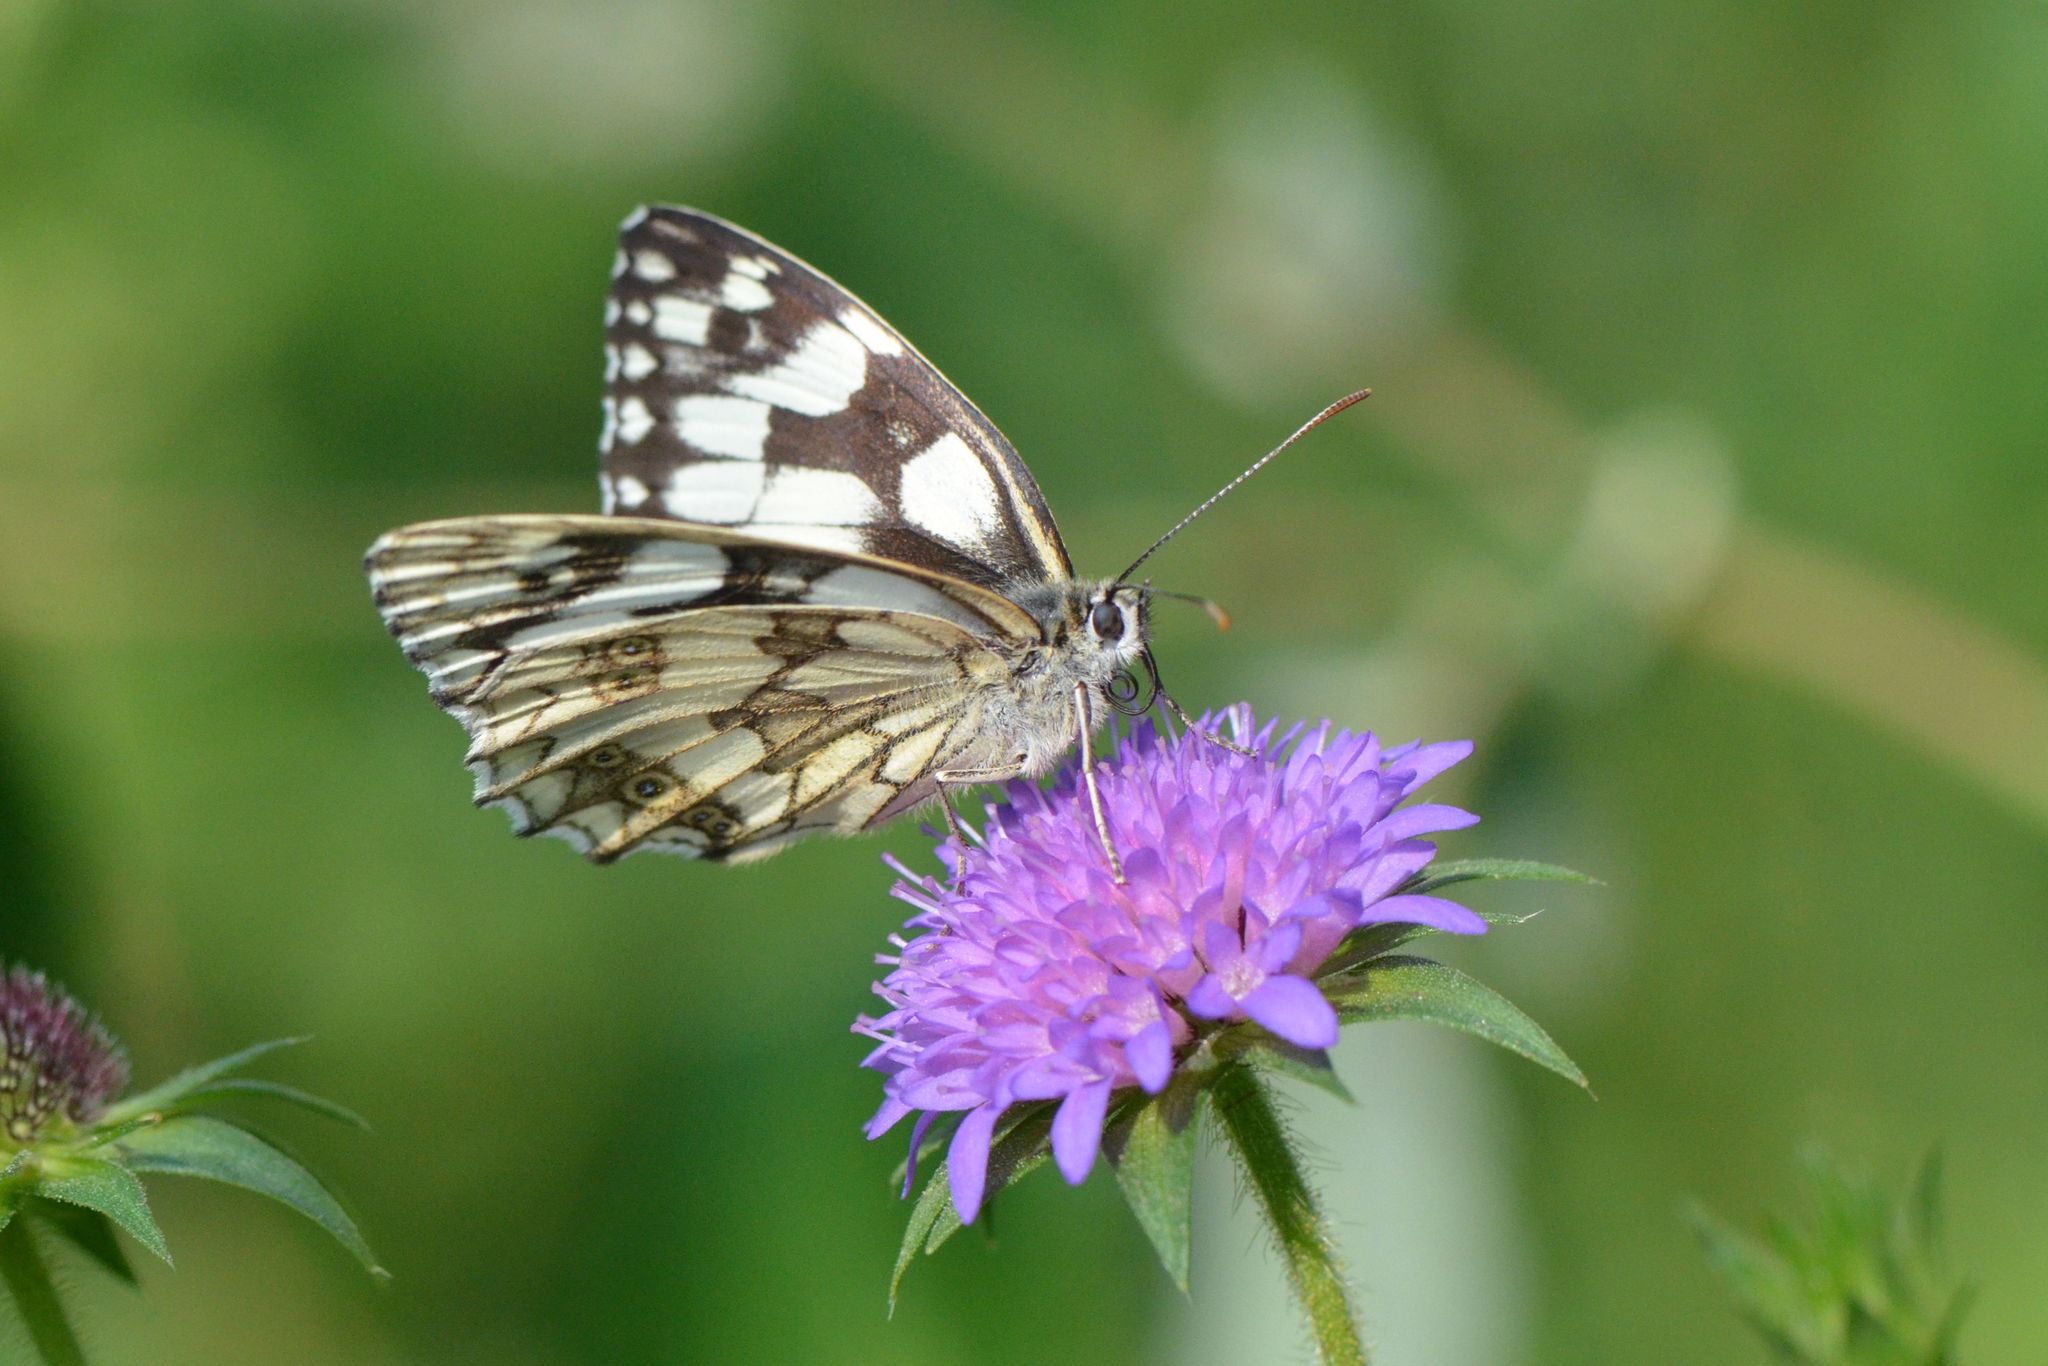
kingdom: Animalia
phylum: Arthropoda
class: Insecta
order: Lepidoptera
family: Nymphalidae
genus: Melanargia
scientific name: Melanargia galathea
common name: Marbled white
